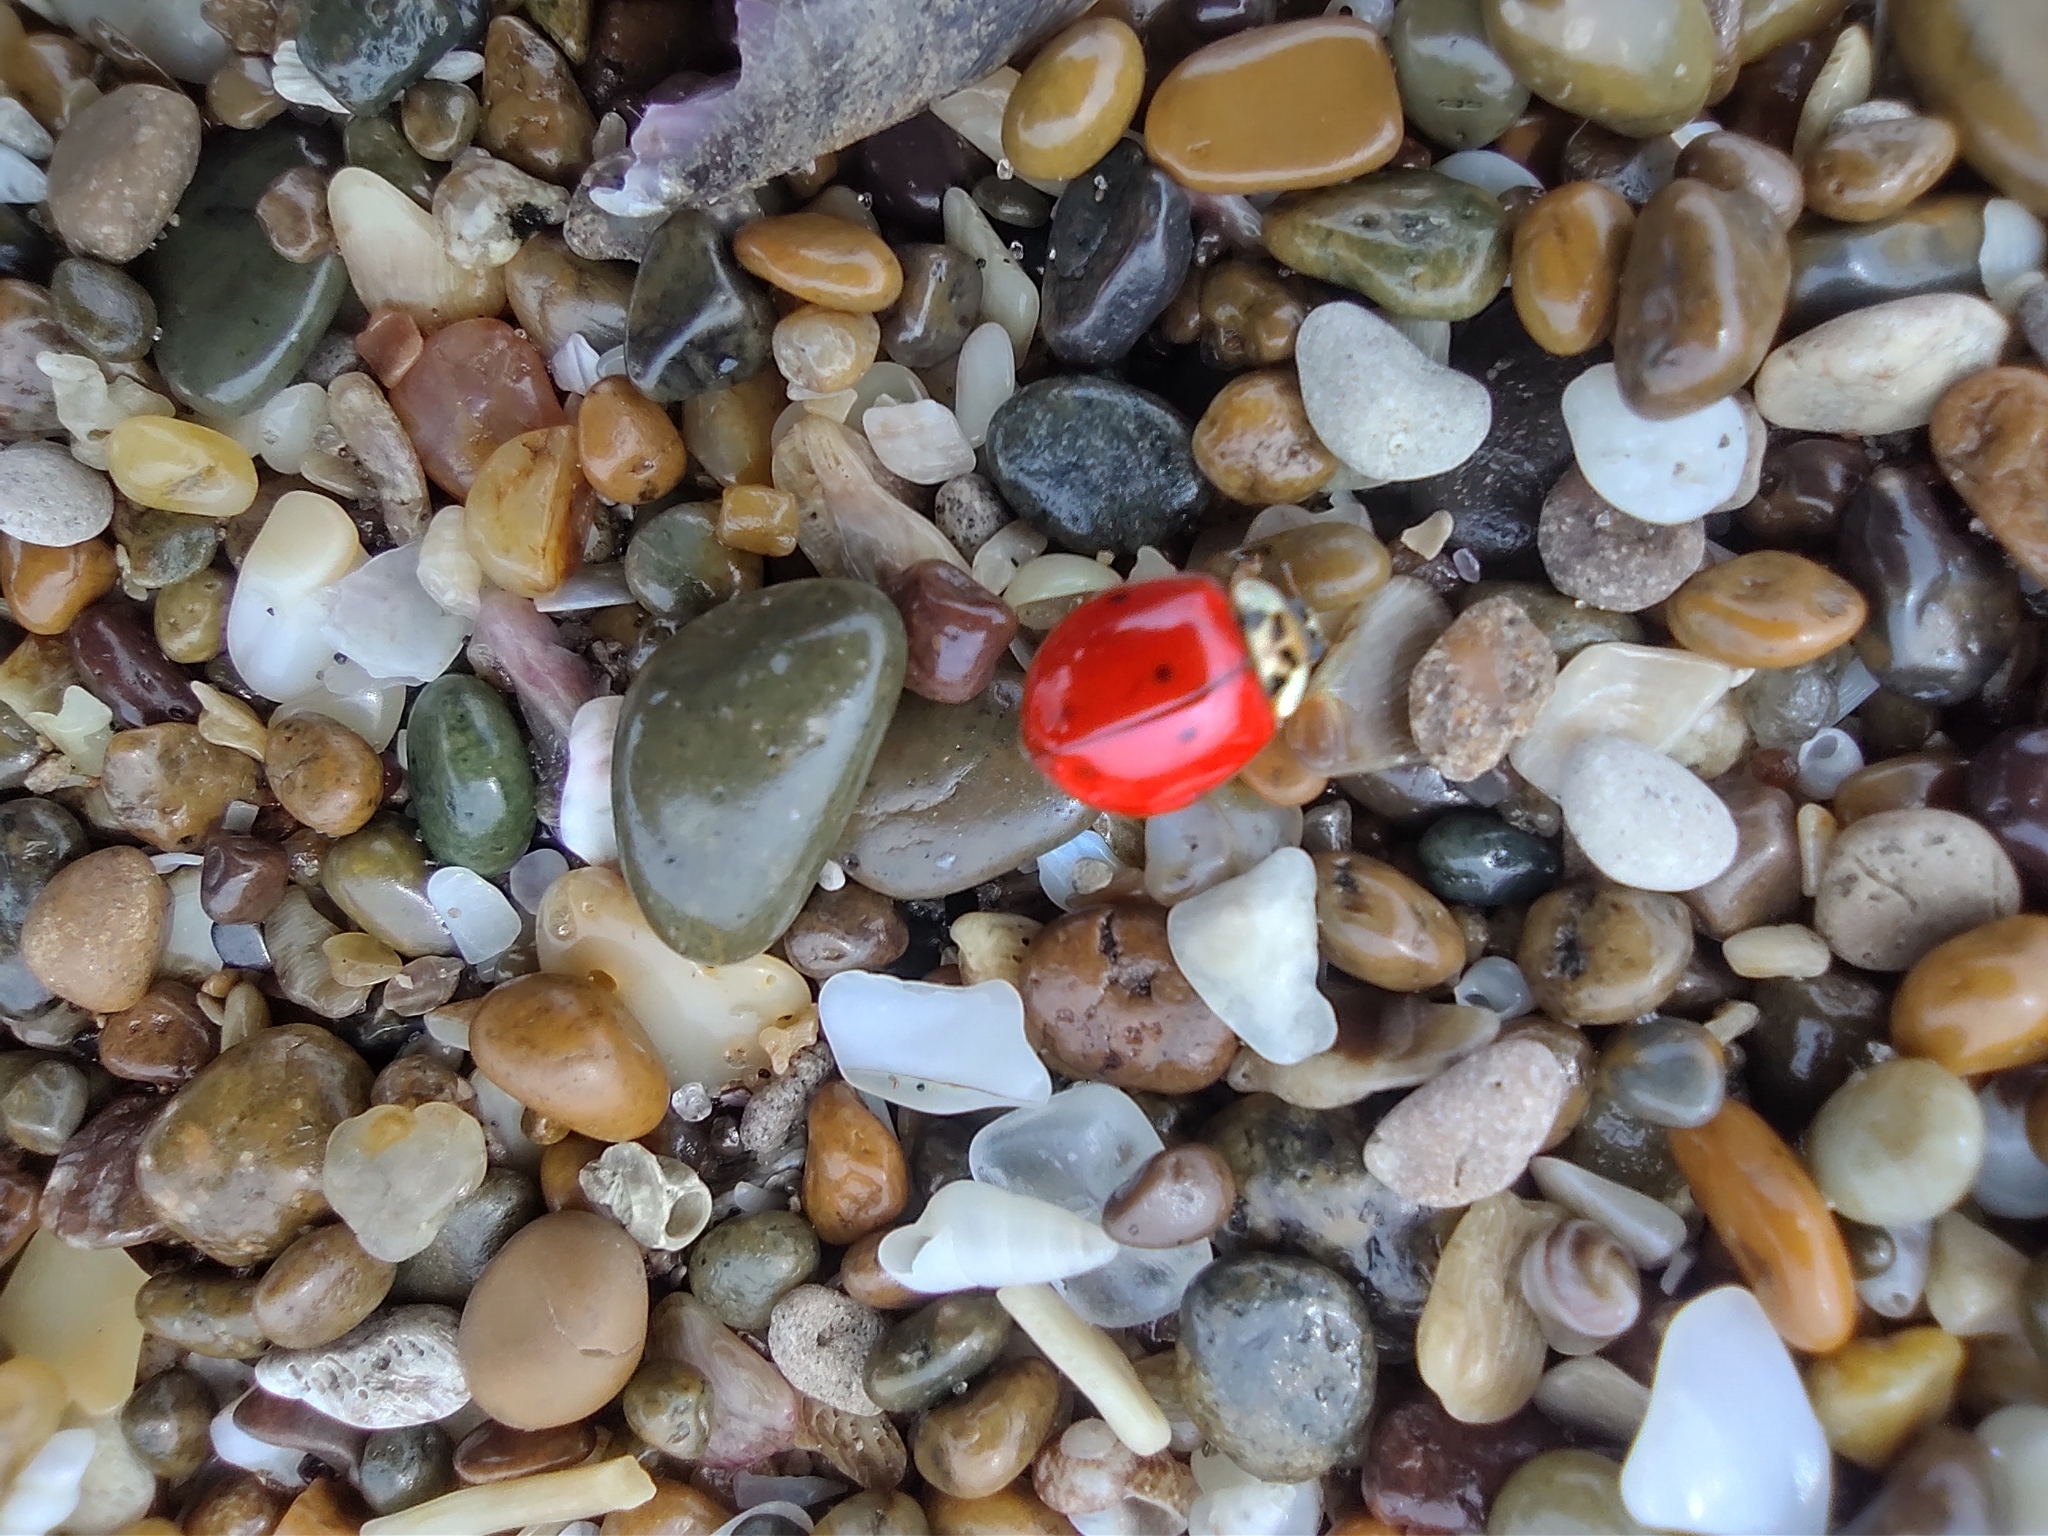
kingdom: Animalia
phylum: Arthropoda
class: Insecta
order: Coleoptera
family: Coccinellidae
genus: Harmonia
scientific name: Harmonia axyridis
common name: Harlequin ladybird
